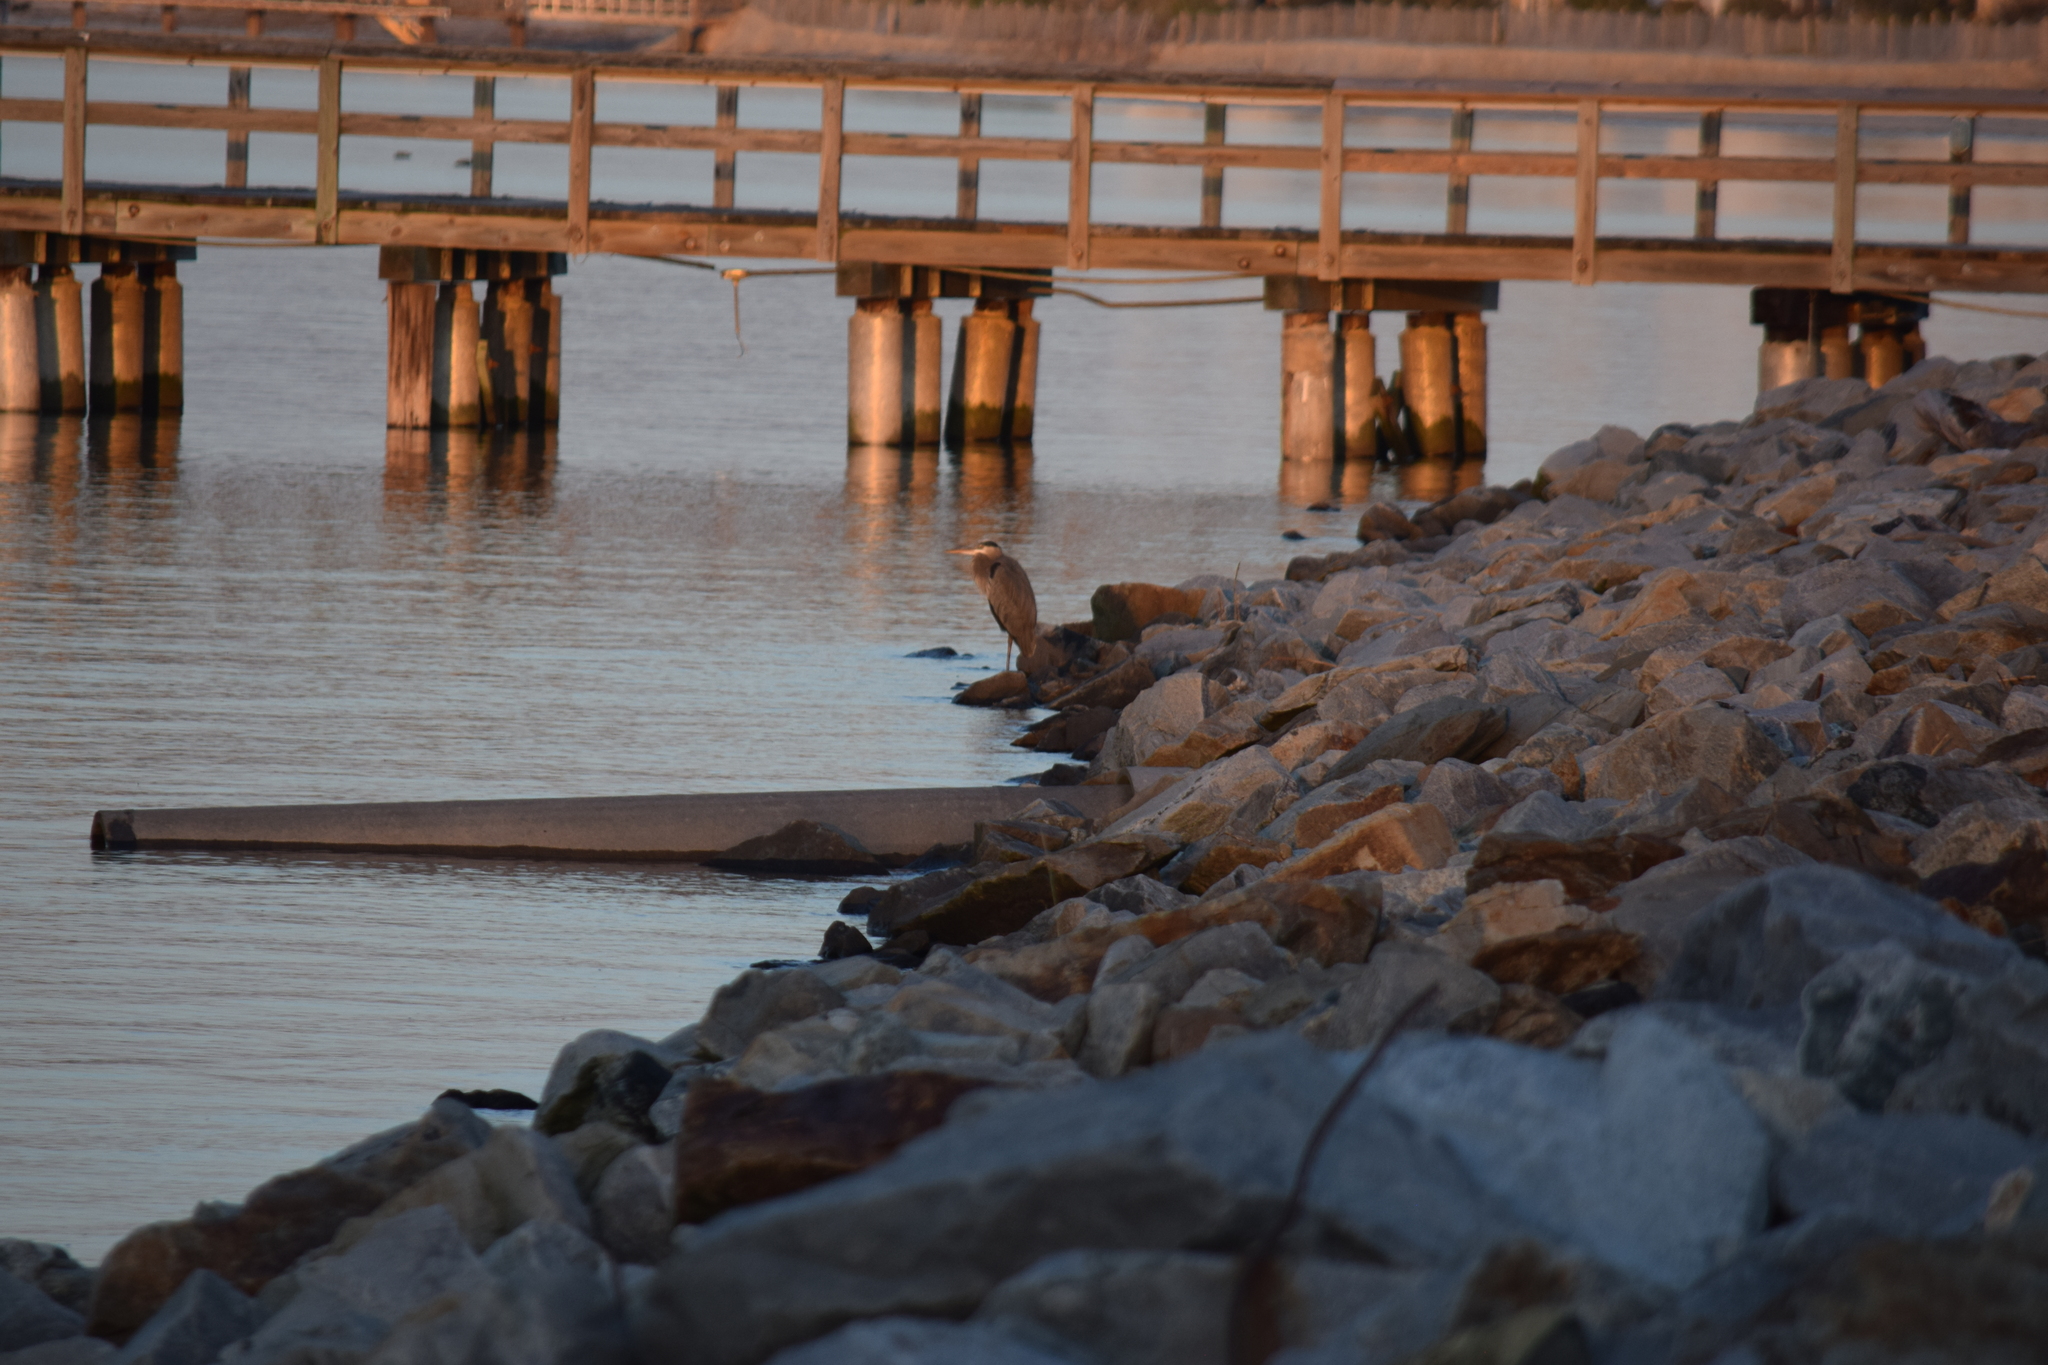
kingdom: Animalia
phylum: Chordata
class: Aves
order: Pelecaniformes
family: Ardeidae
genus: Ardea
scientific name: Ardea herodias
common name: Great blue heron
